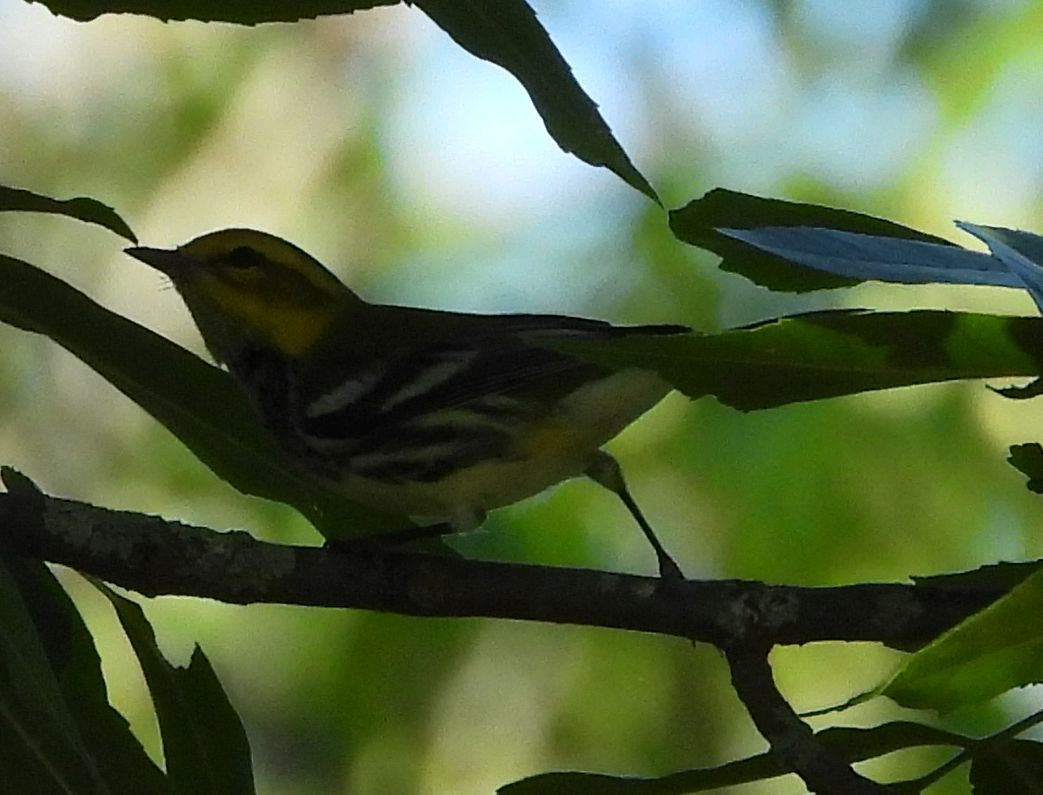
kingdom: Animalia
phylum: Chordata
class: Aves
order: Passeriformes
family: Parulidae
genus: Setophaga
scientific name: Setophaga virens
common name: Black-throated green warbler
